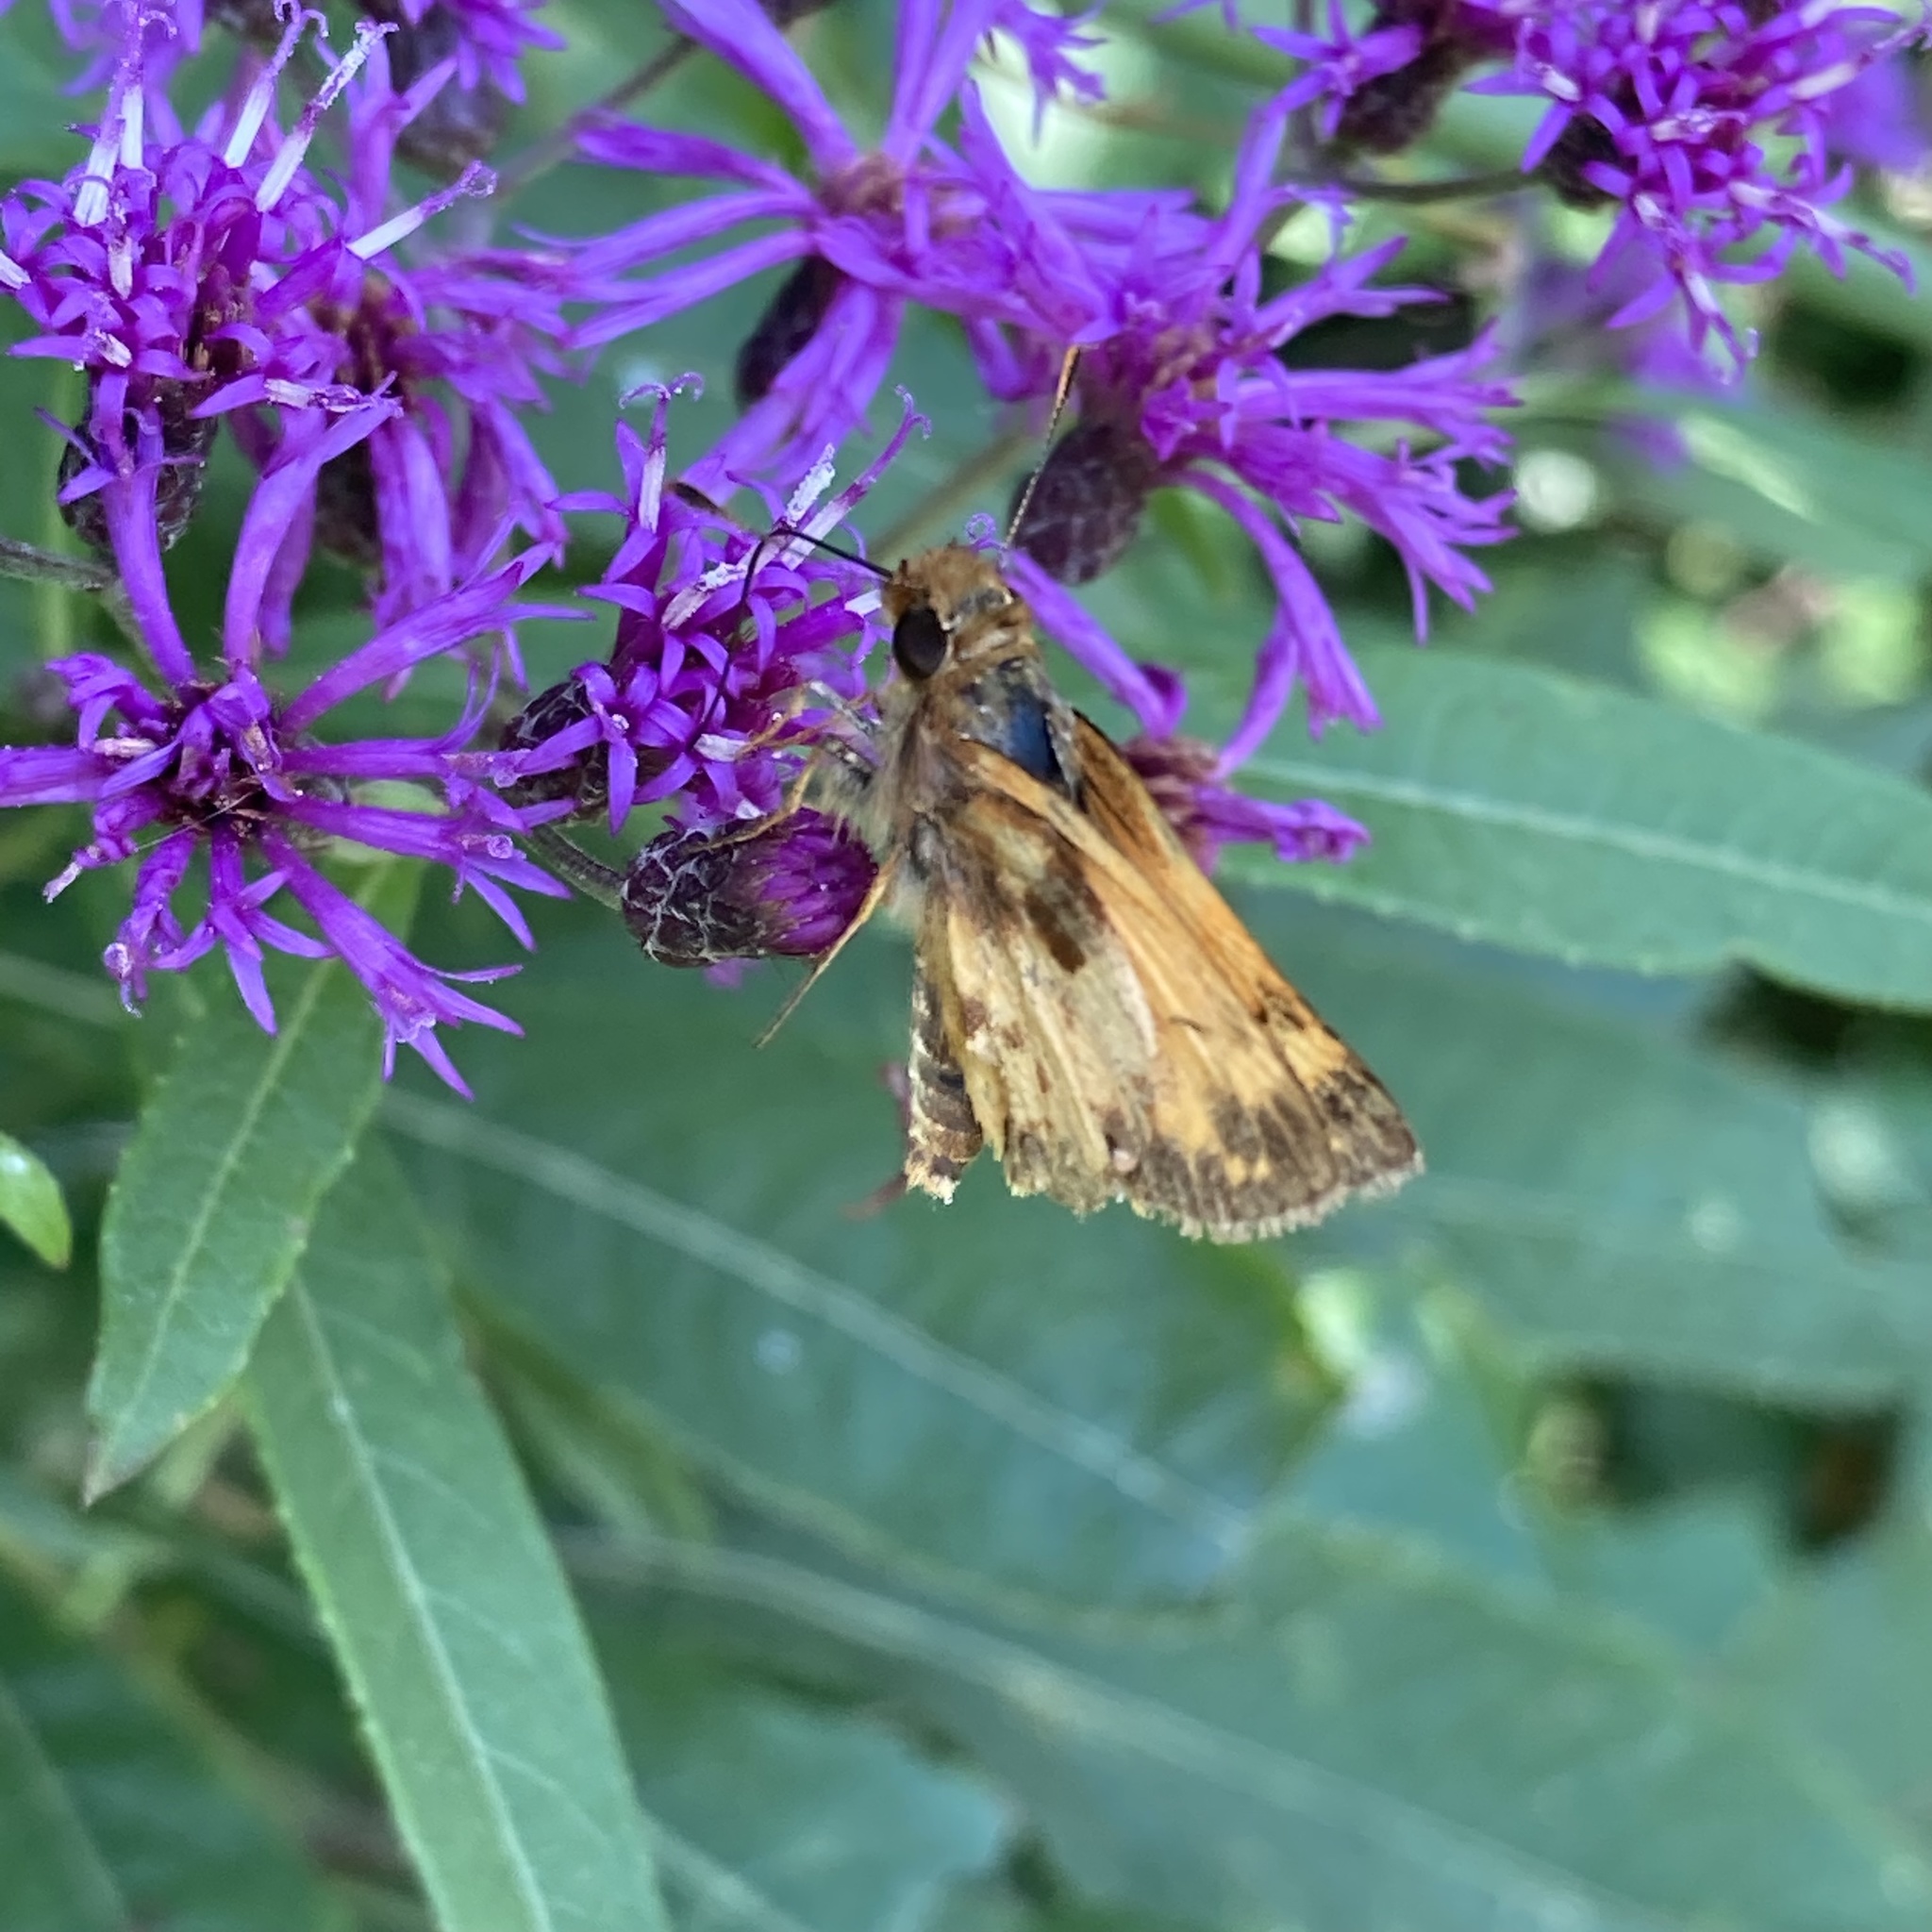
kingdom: Animalia
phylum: Arthropoda
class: Insecta
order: Lepidoptera
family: Hesperiidae
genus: Lon
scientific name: Lon zabulon
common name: Zabulon skipper
